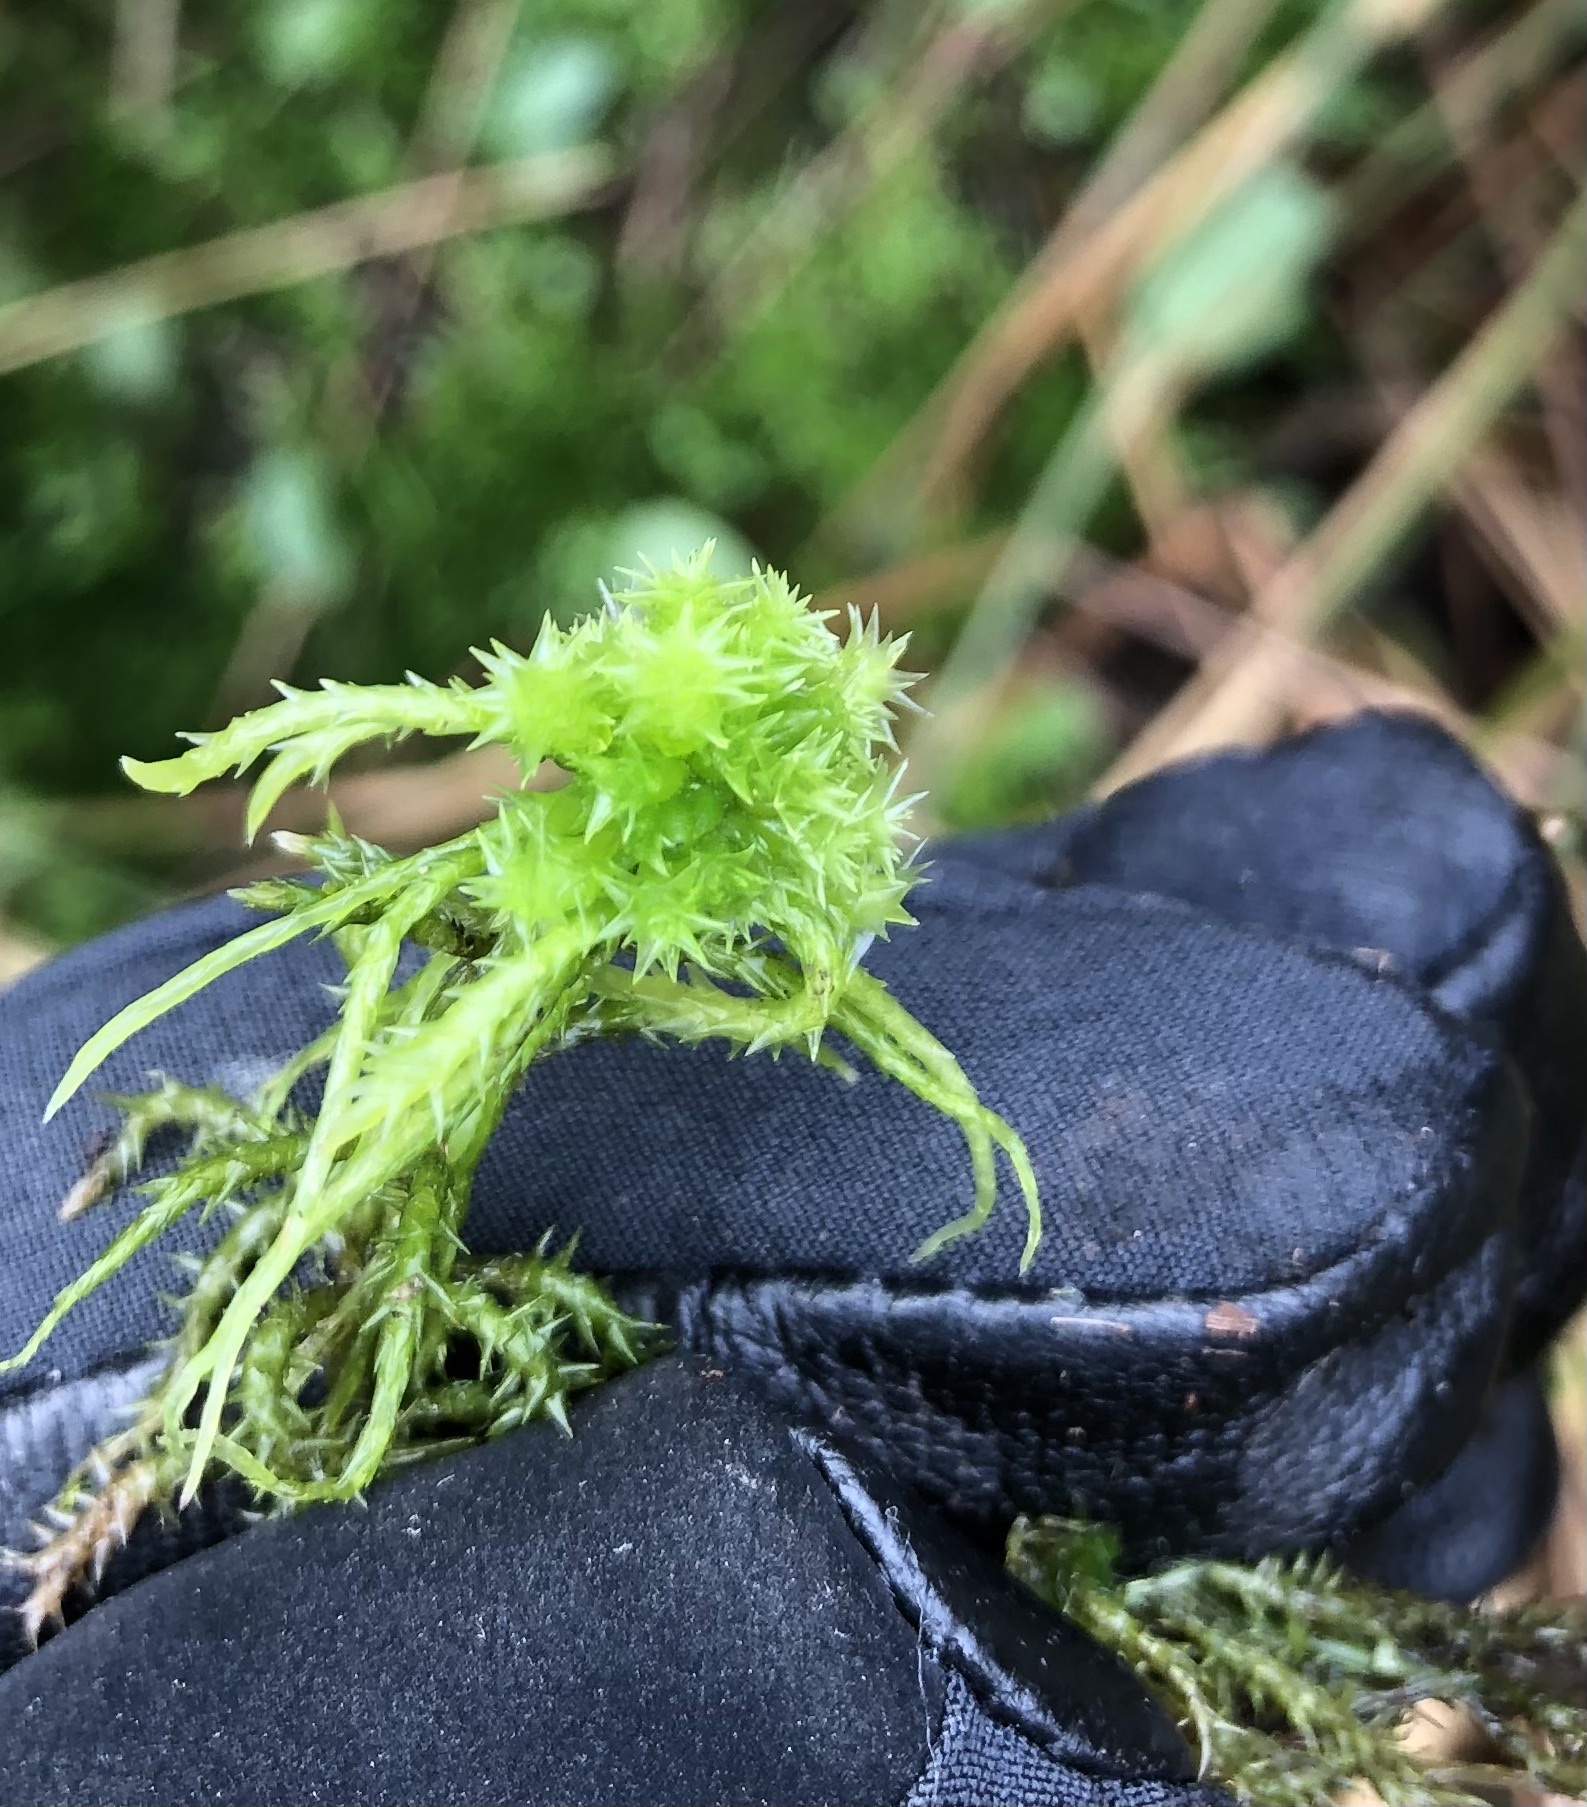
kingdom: Plantae
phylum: Bryophyta
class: Sphagnopsida
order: Sphagnales
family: Sphagnaceae
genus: Sphagnum
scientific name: Sphagnum squarrosum
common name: Shaggy peat moss
